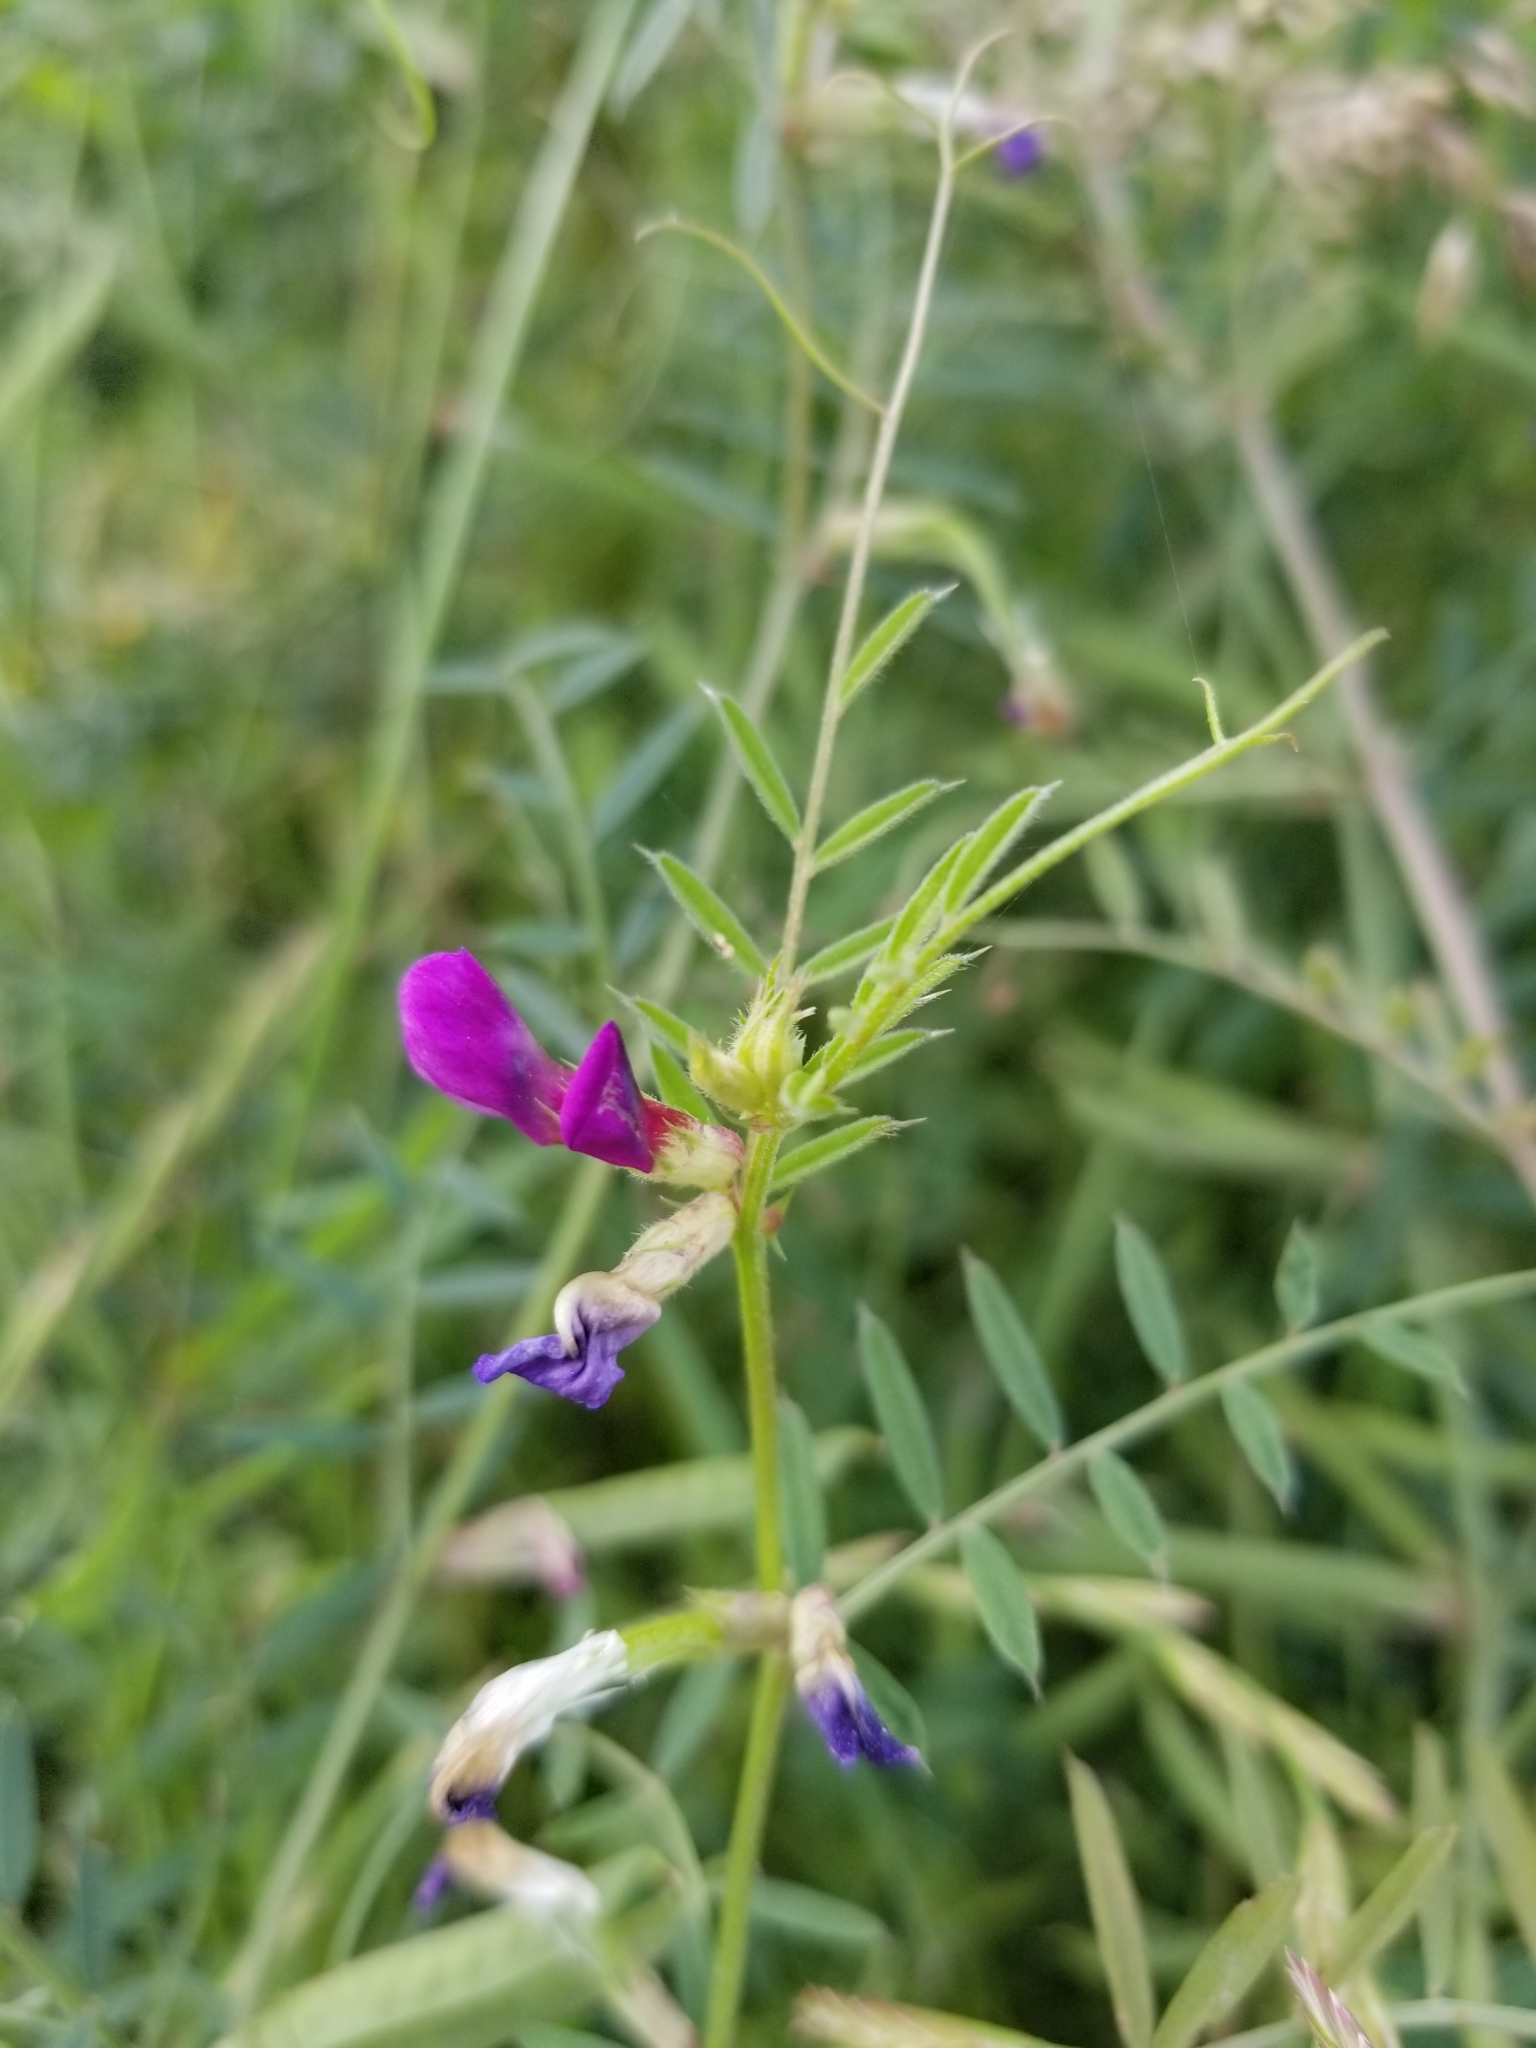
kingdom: Plantae
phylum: Tracheophyta
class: Magnoliopsida
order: Fabales
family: Fabaceae
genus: Vicia
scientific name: Vicia sativa
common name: Garden vetch
